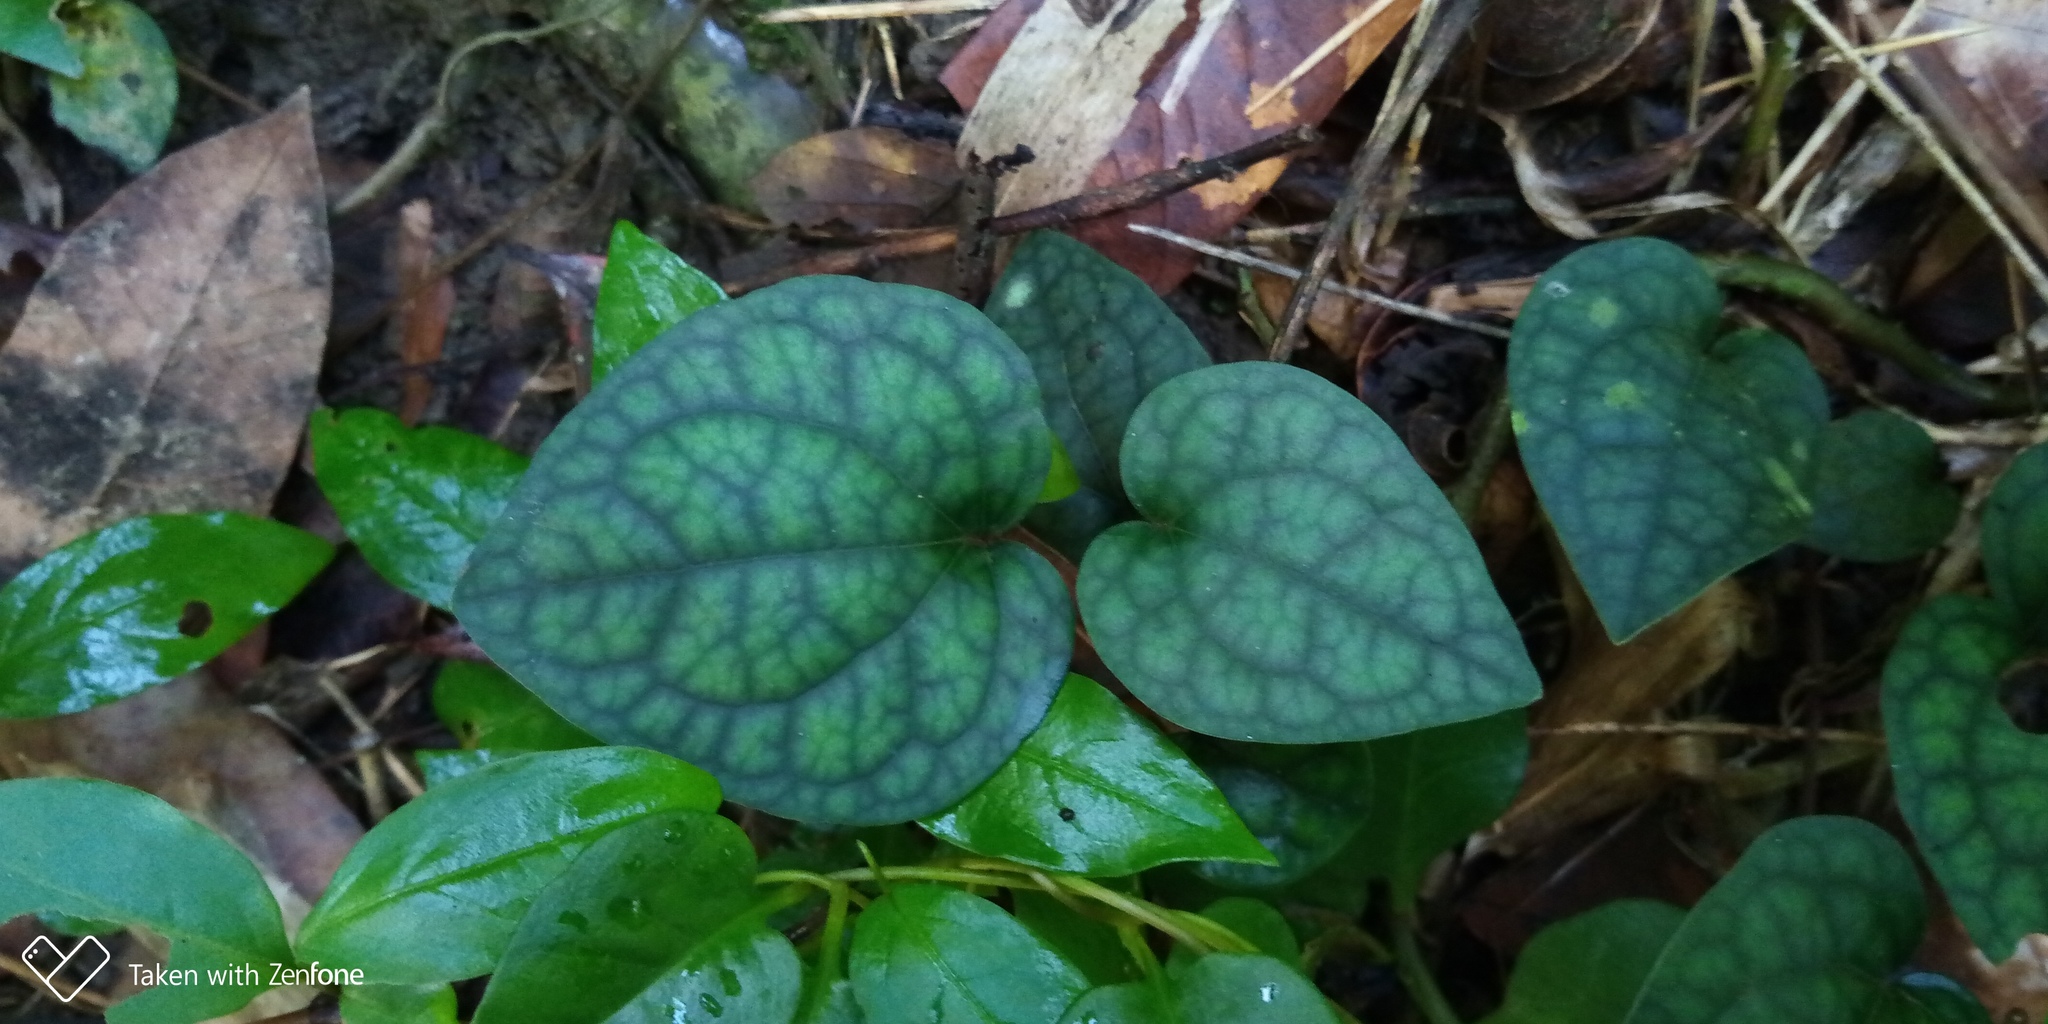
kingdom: Plantae
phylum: Tracheophyta
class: Magnoliopsida
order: Piperales
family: Piperaceae
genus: Piper
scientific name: Piper kadsura
